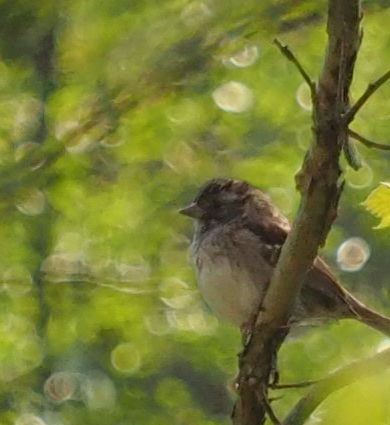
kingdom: Animalia
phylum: Chordata
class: Aves
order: Passeriformes
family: Passerellidae
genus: Zonotrichia
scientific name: Zonotrichia albicollis
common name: White-throated sparrow
